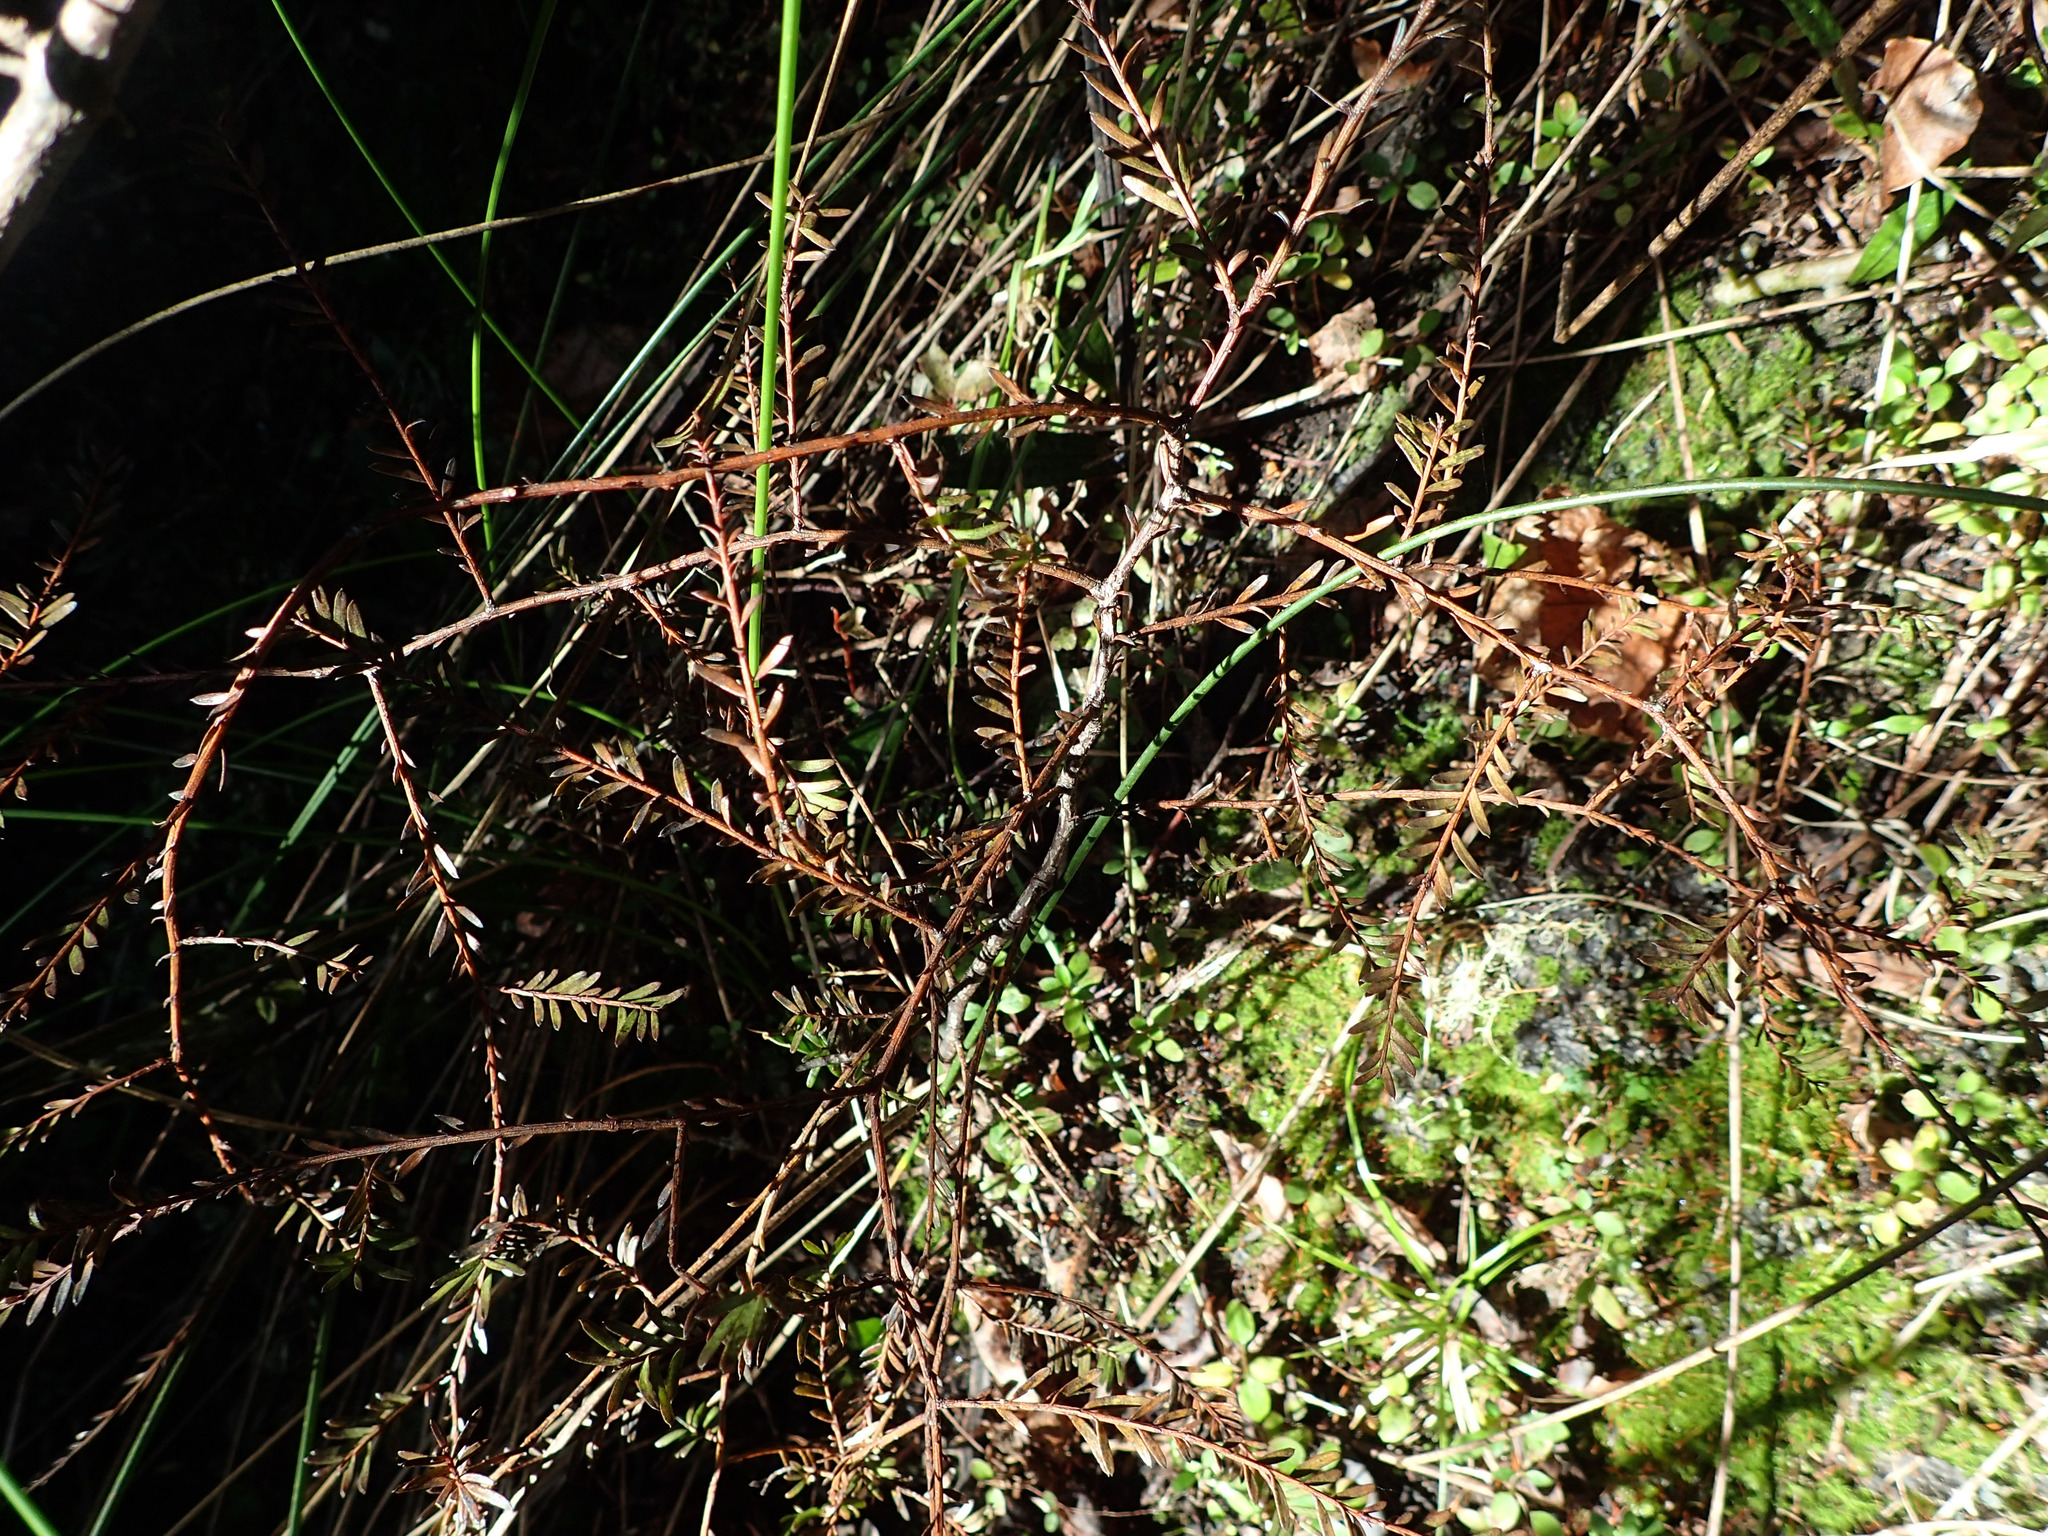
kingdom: Plantae
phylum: Tracheophyta
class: Pinopsida
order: Pinales
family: Podocarpaceae
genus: Prumnopitys
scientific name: Prumnopitys taxifolia
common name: Matai
